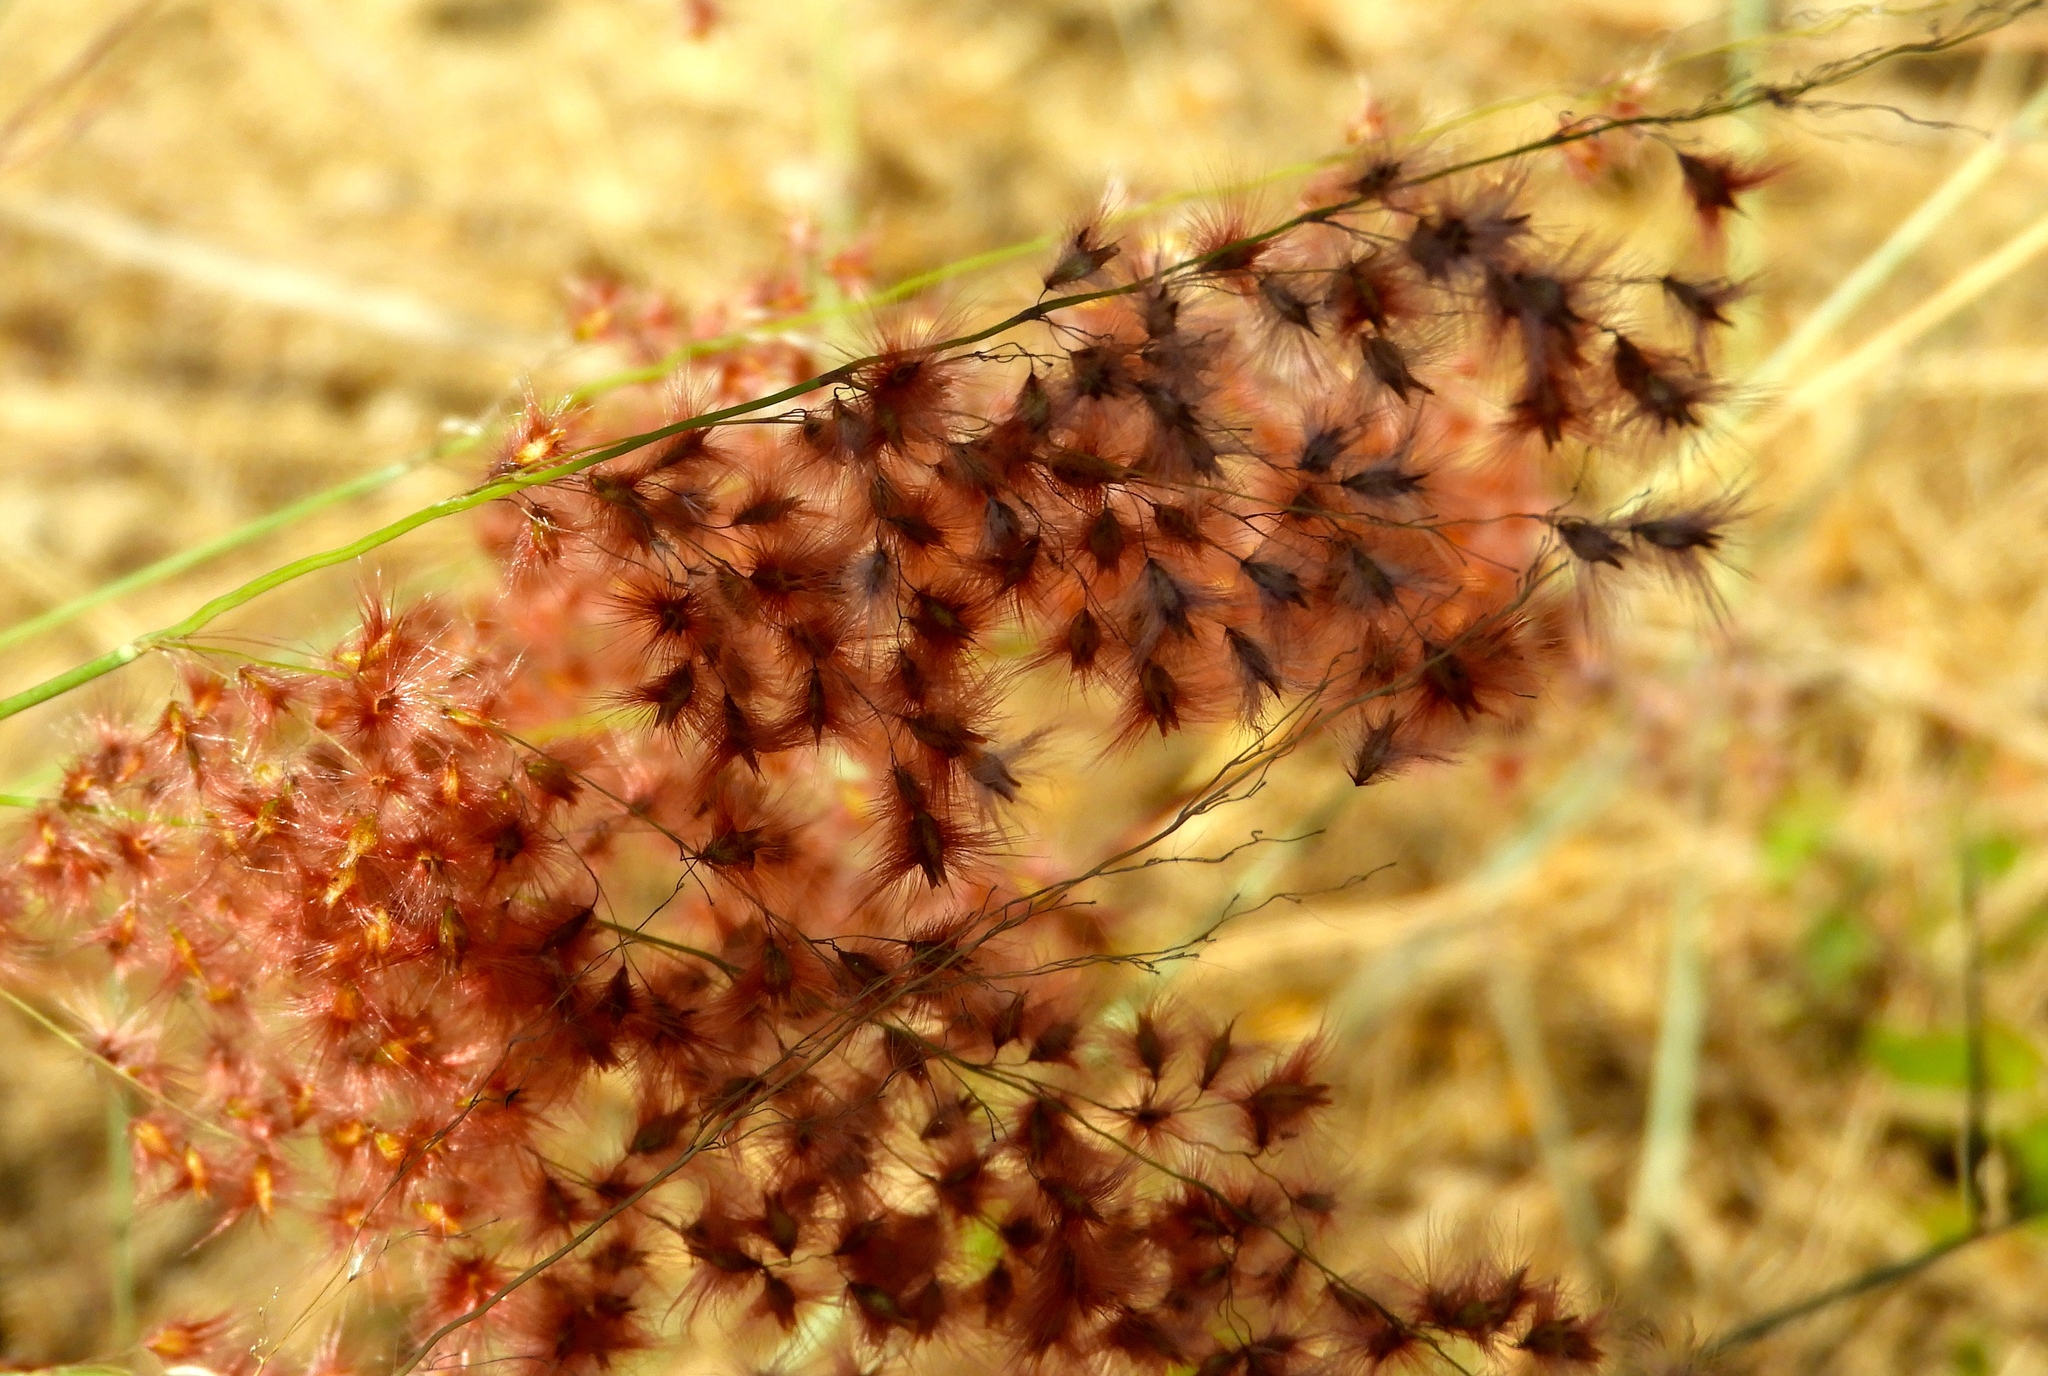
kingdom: Plantae
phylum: Tracheophyta
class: Liliopsida
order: Poales
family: Poaceae
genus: Melinis
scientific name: Melinis repens
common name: Rose natal grass
